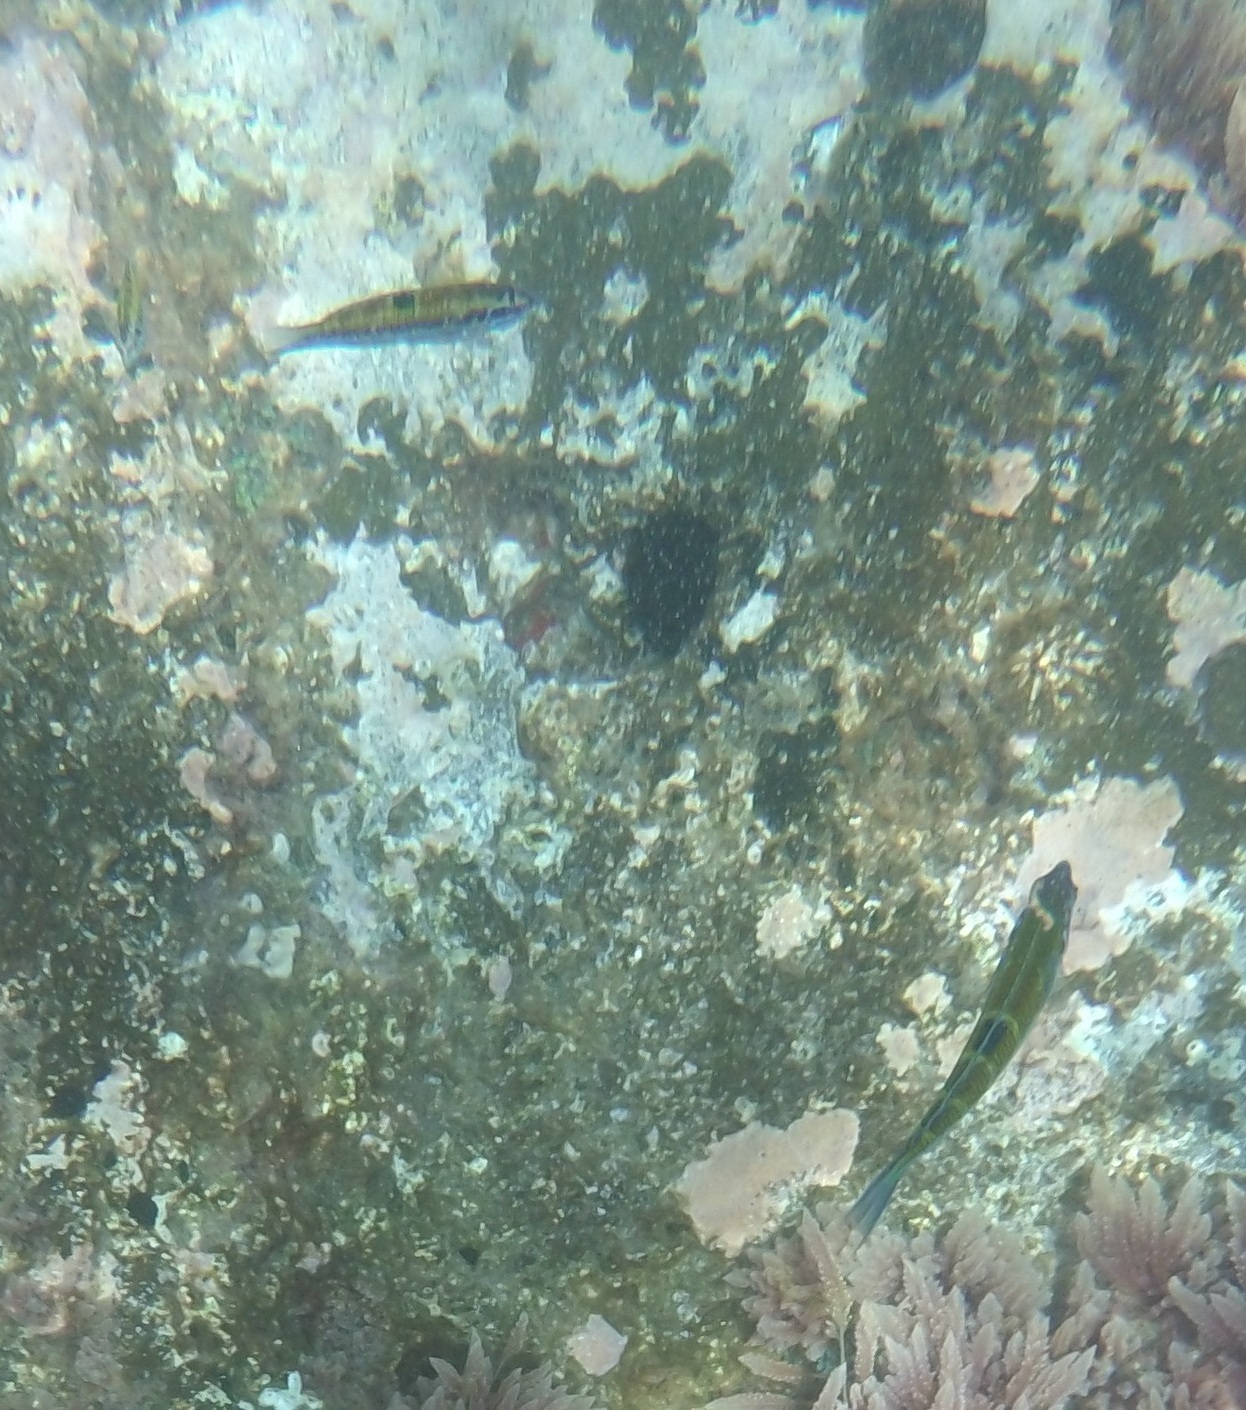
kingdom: Animalia
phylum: Chordata
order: Perciformes
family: Labridae
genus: Thalassoma
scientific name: Thalassoma pavo
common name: Ornate wrasse
